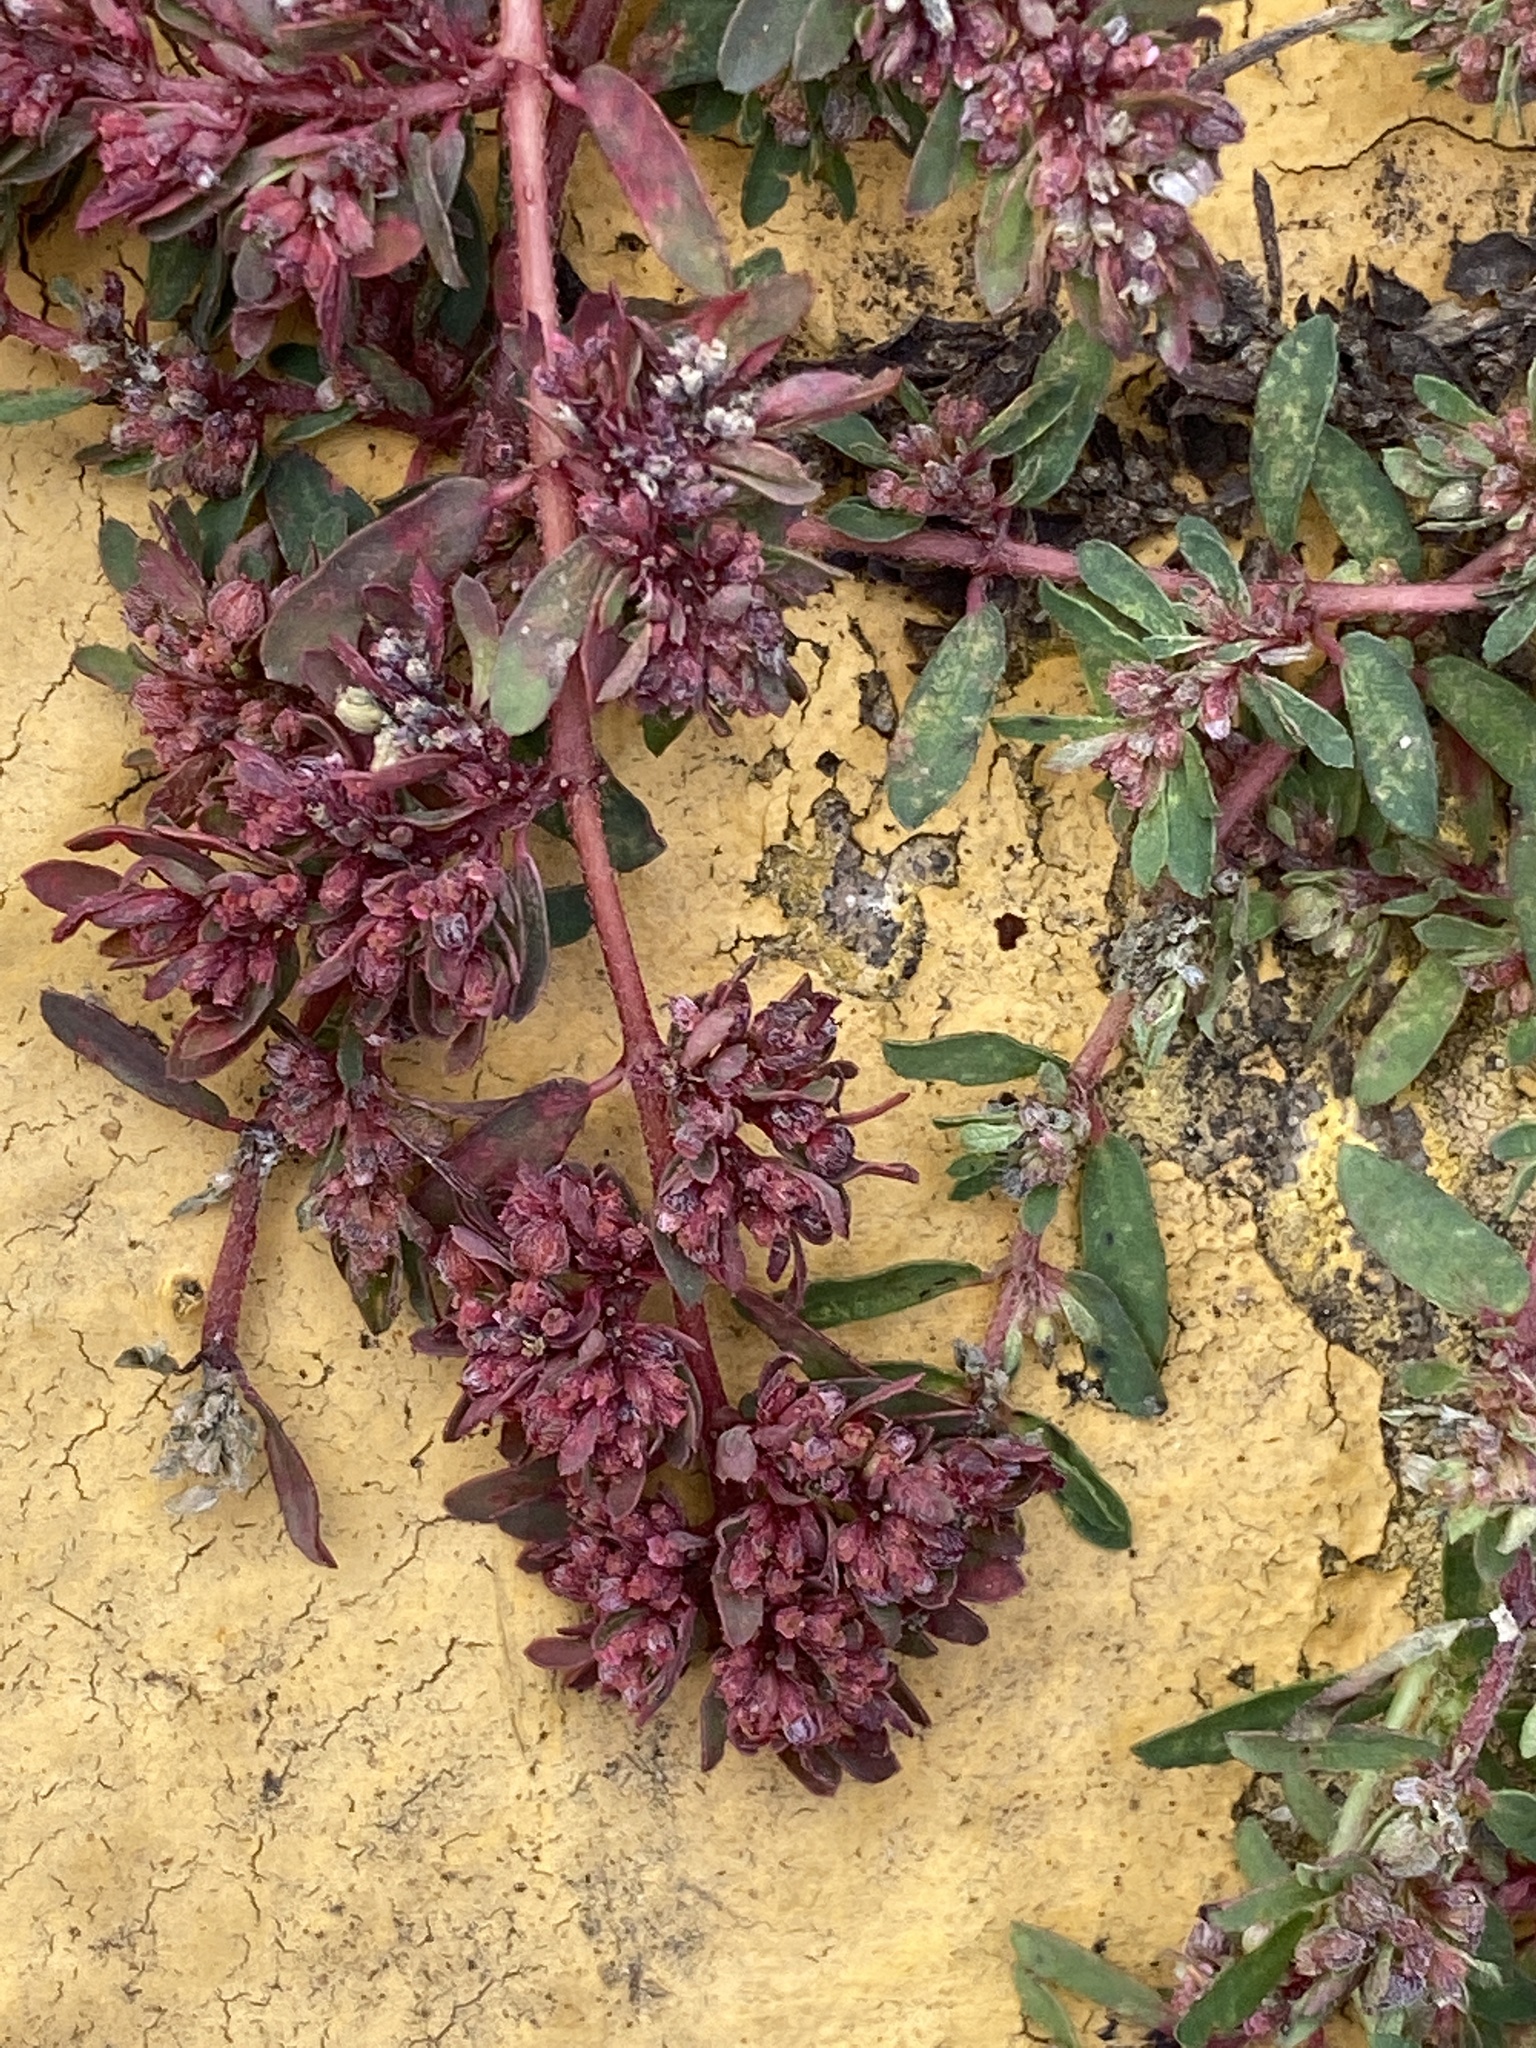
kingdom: Plantae
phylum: Tracheophyta
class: Magnoliopsida
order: Malpighiales
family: Euphorbiaceae
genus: Euphorbia
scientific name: Euphorbia maculata
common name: Spotted spurge
